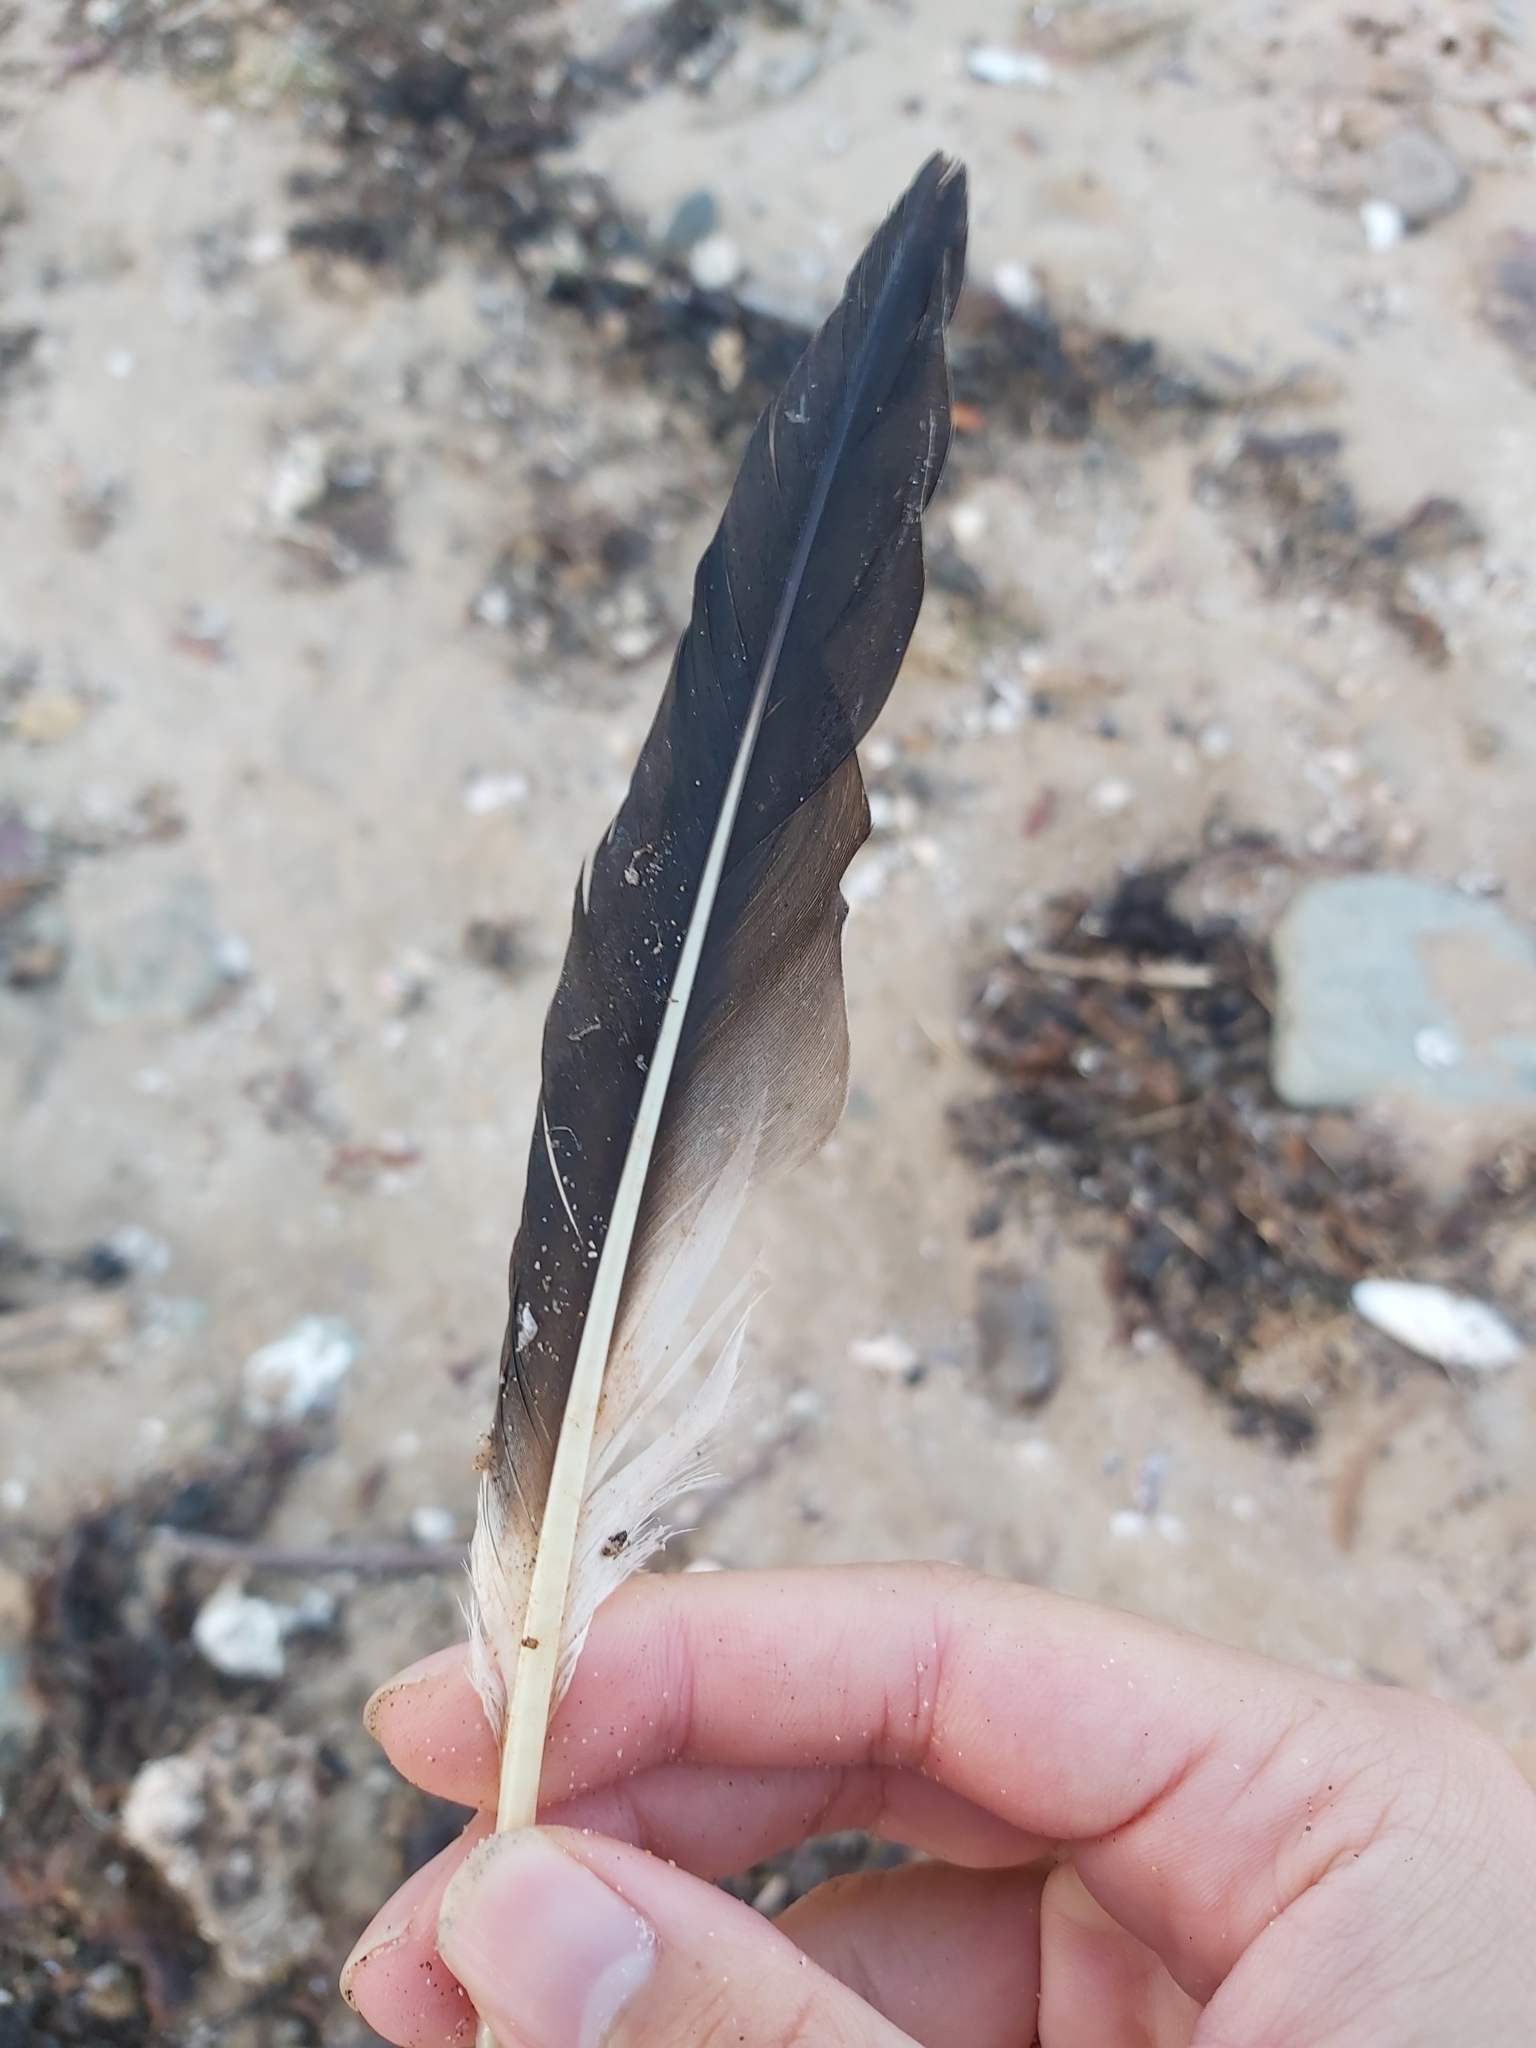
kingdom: Animalia
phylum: Chordata
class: Aves
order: Suliformes
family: Sulidae
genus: Morus
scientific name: Morus serrator
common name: Australasian gannet
